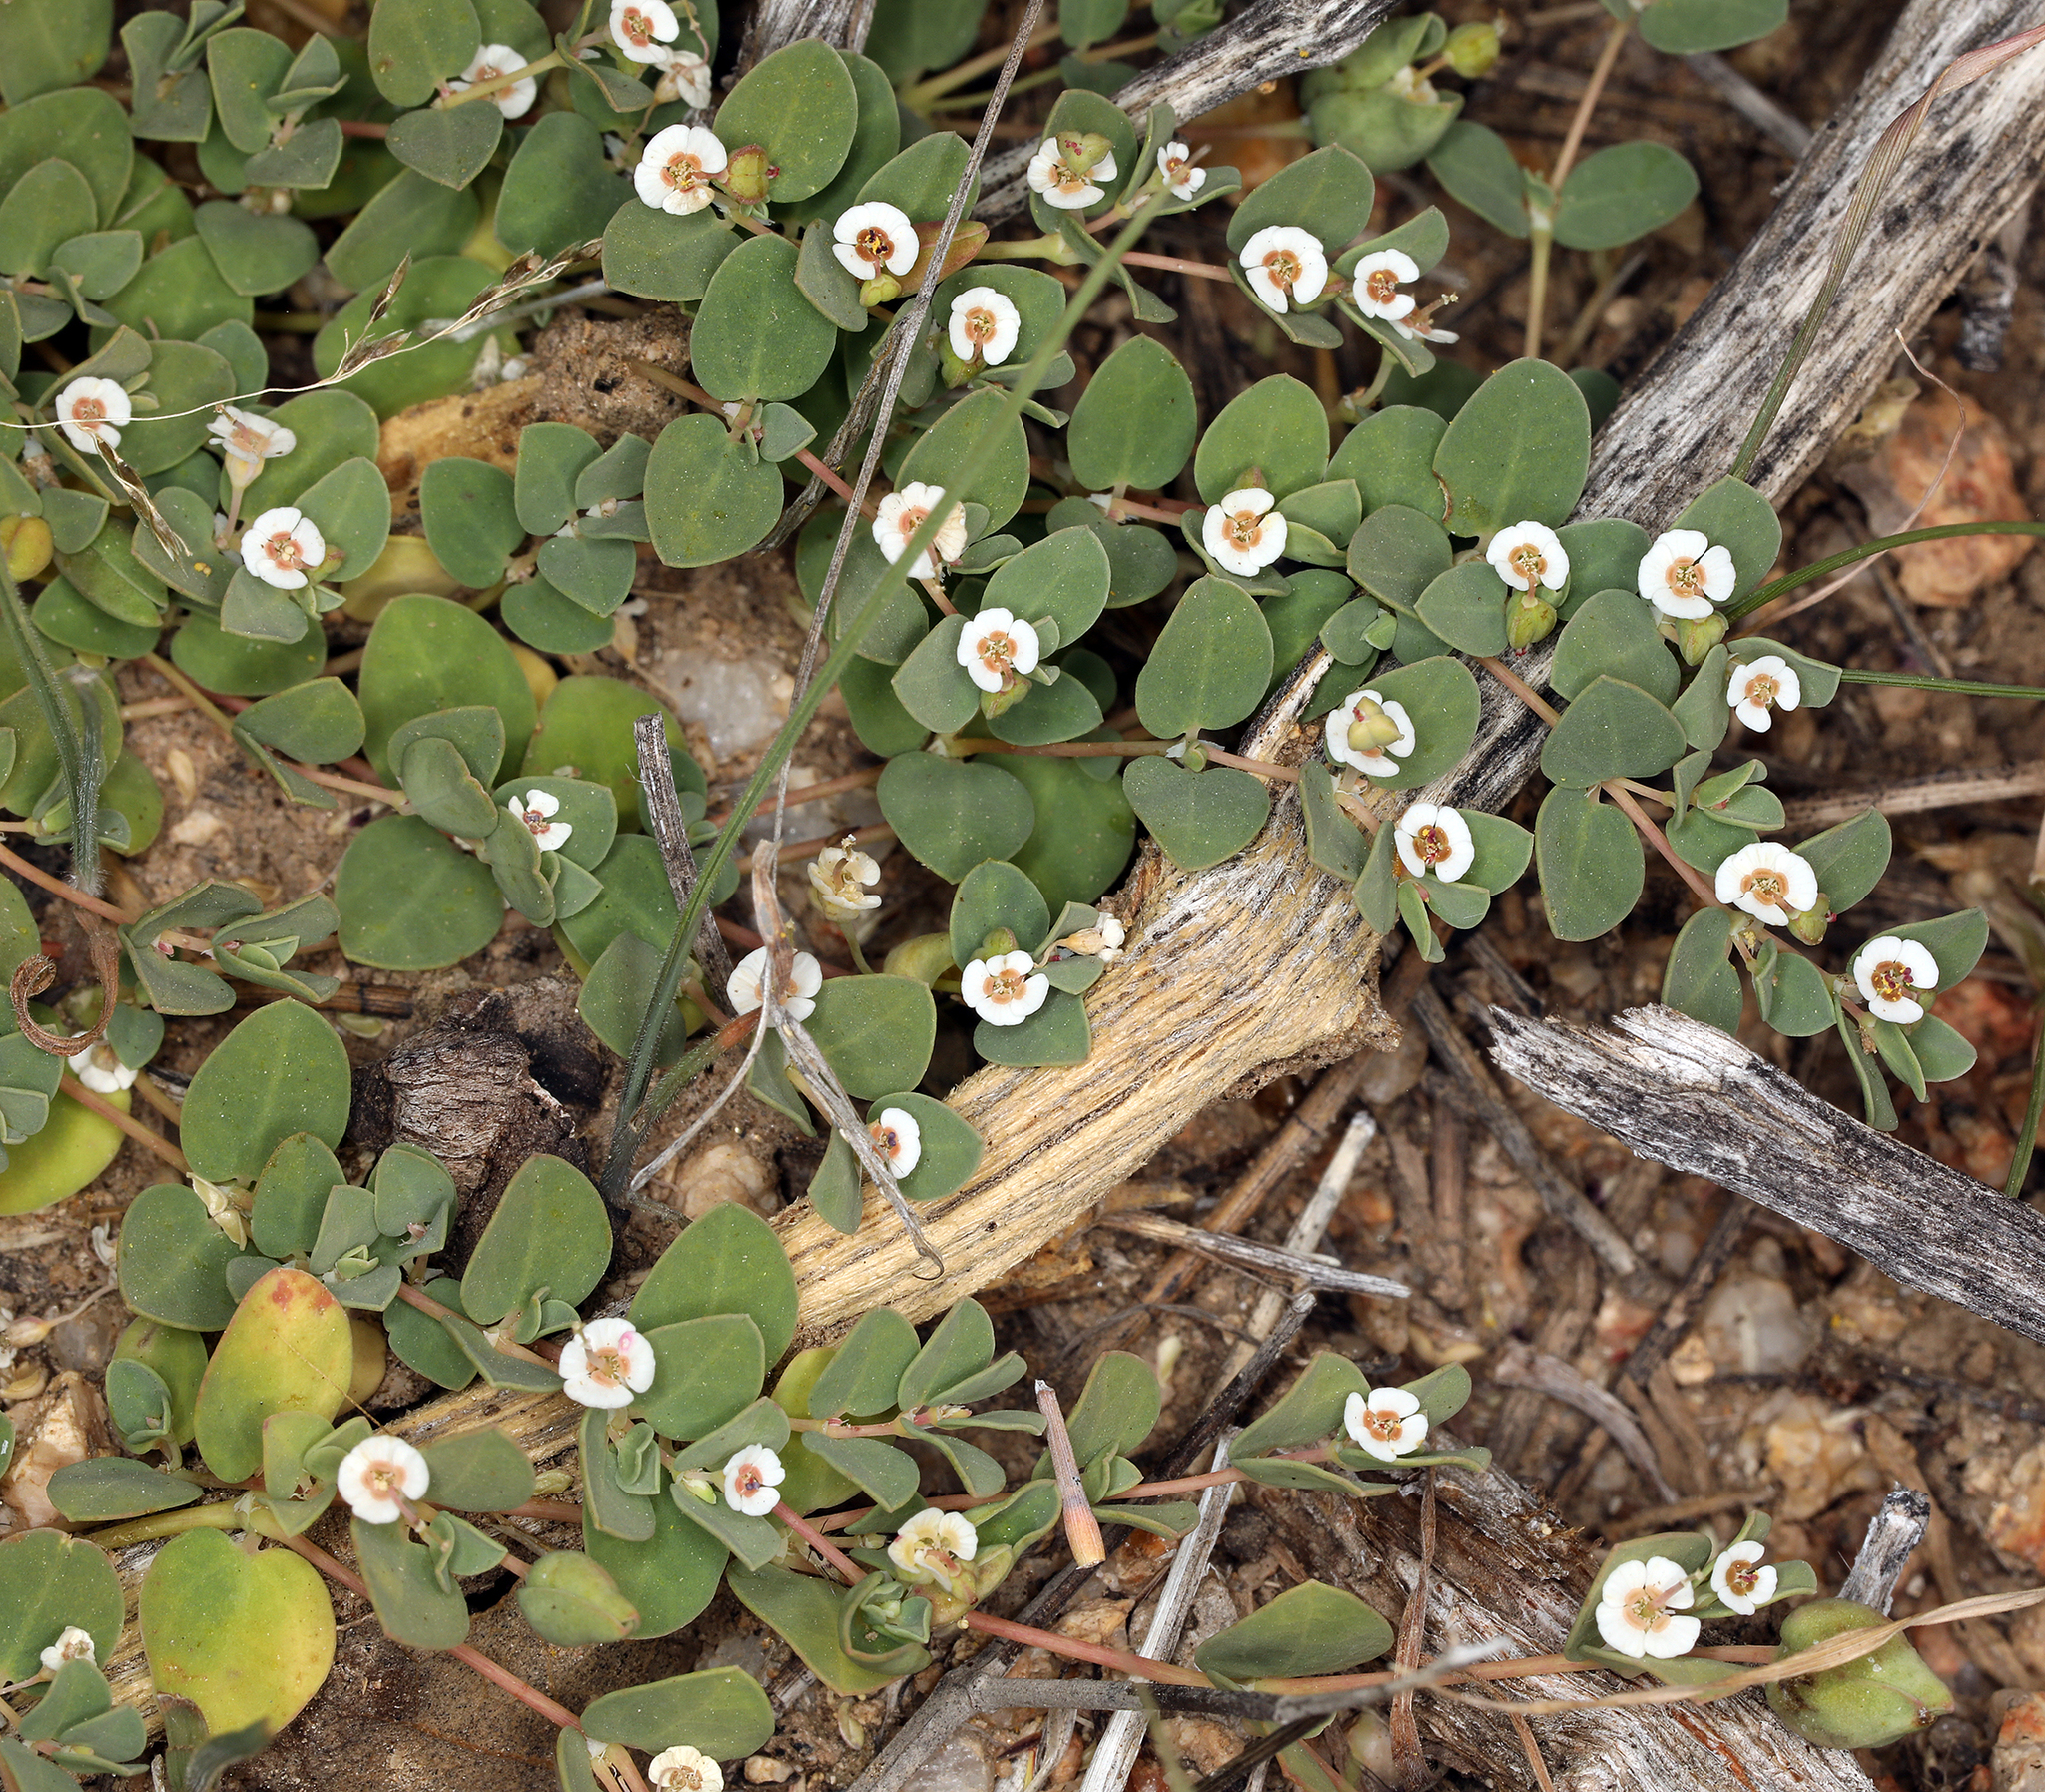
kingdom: Plantae
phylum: Tracheophyta
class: Magnoliopsida
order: Malpighiales
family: Euphorbiaceae
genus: Euphorbia
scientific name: Euphorbia albomarginata
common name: Whitemargin sandmat
